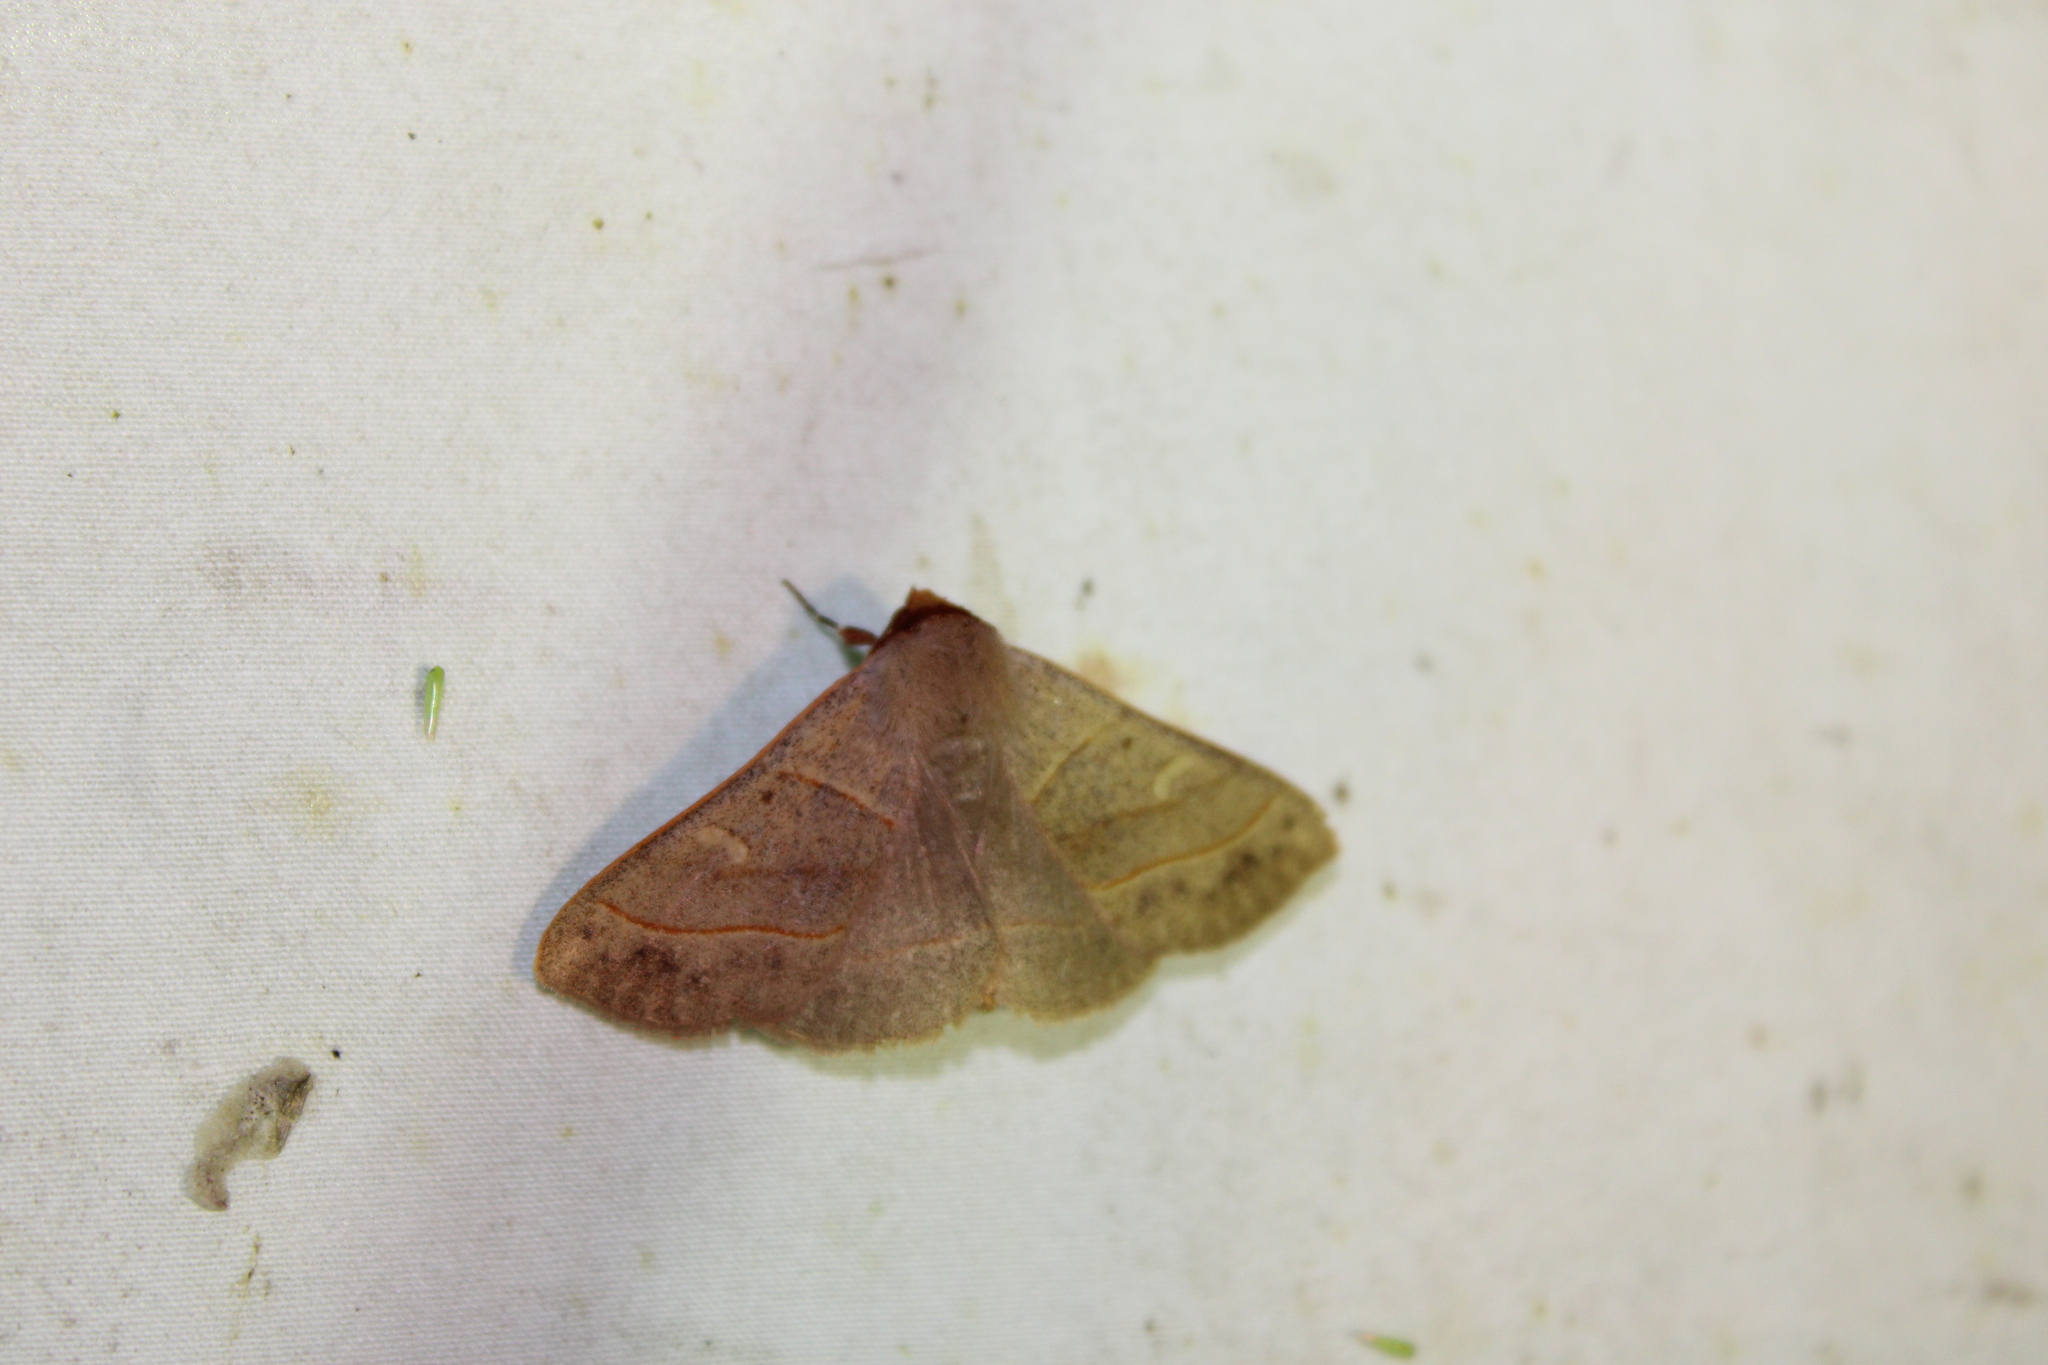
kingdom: Animalia
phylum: Arthropoda
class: Insecta
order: Lepidoptera
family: Erebidae
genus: Panopoda
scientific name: Panopoda rufimargo
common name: Red-lined panopoda moth
